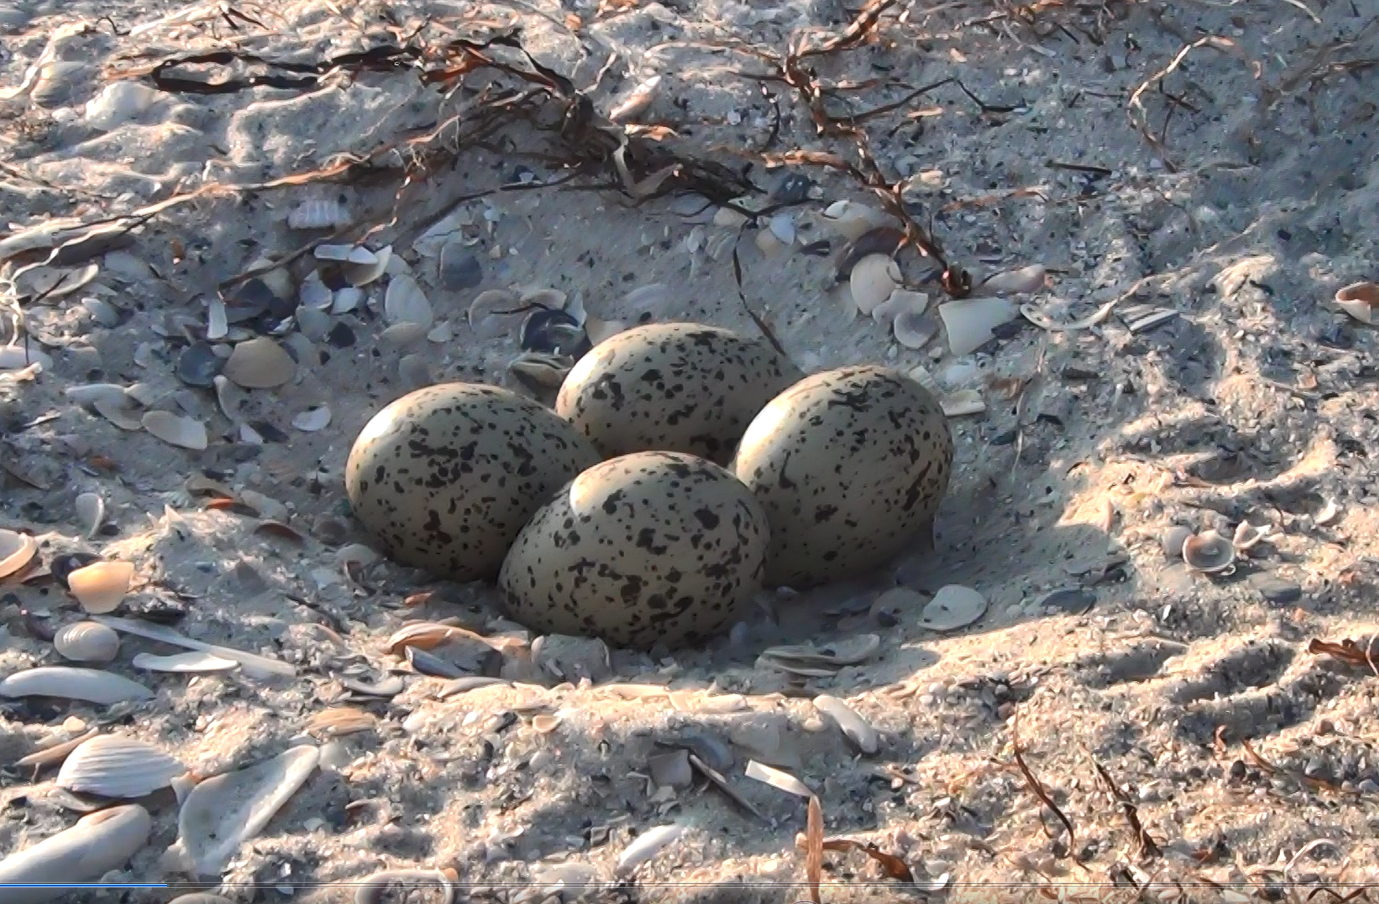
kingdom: Animalia
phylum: Chordata
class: Aves
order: Charadriiformes
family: Haematopodidae
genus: Haematopus
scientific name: Haematopus ostralegus
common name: Eurasian oystercatcher
